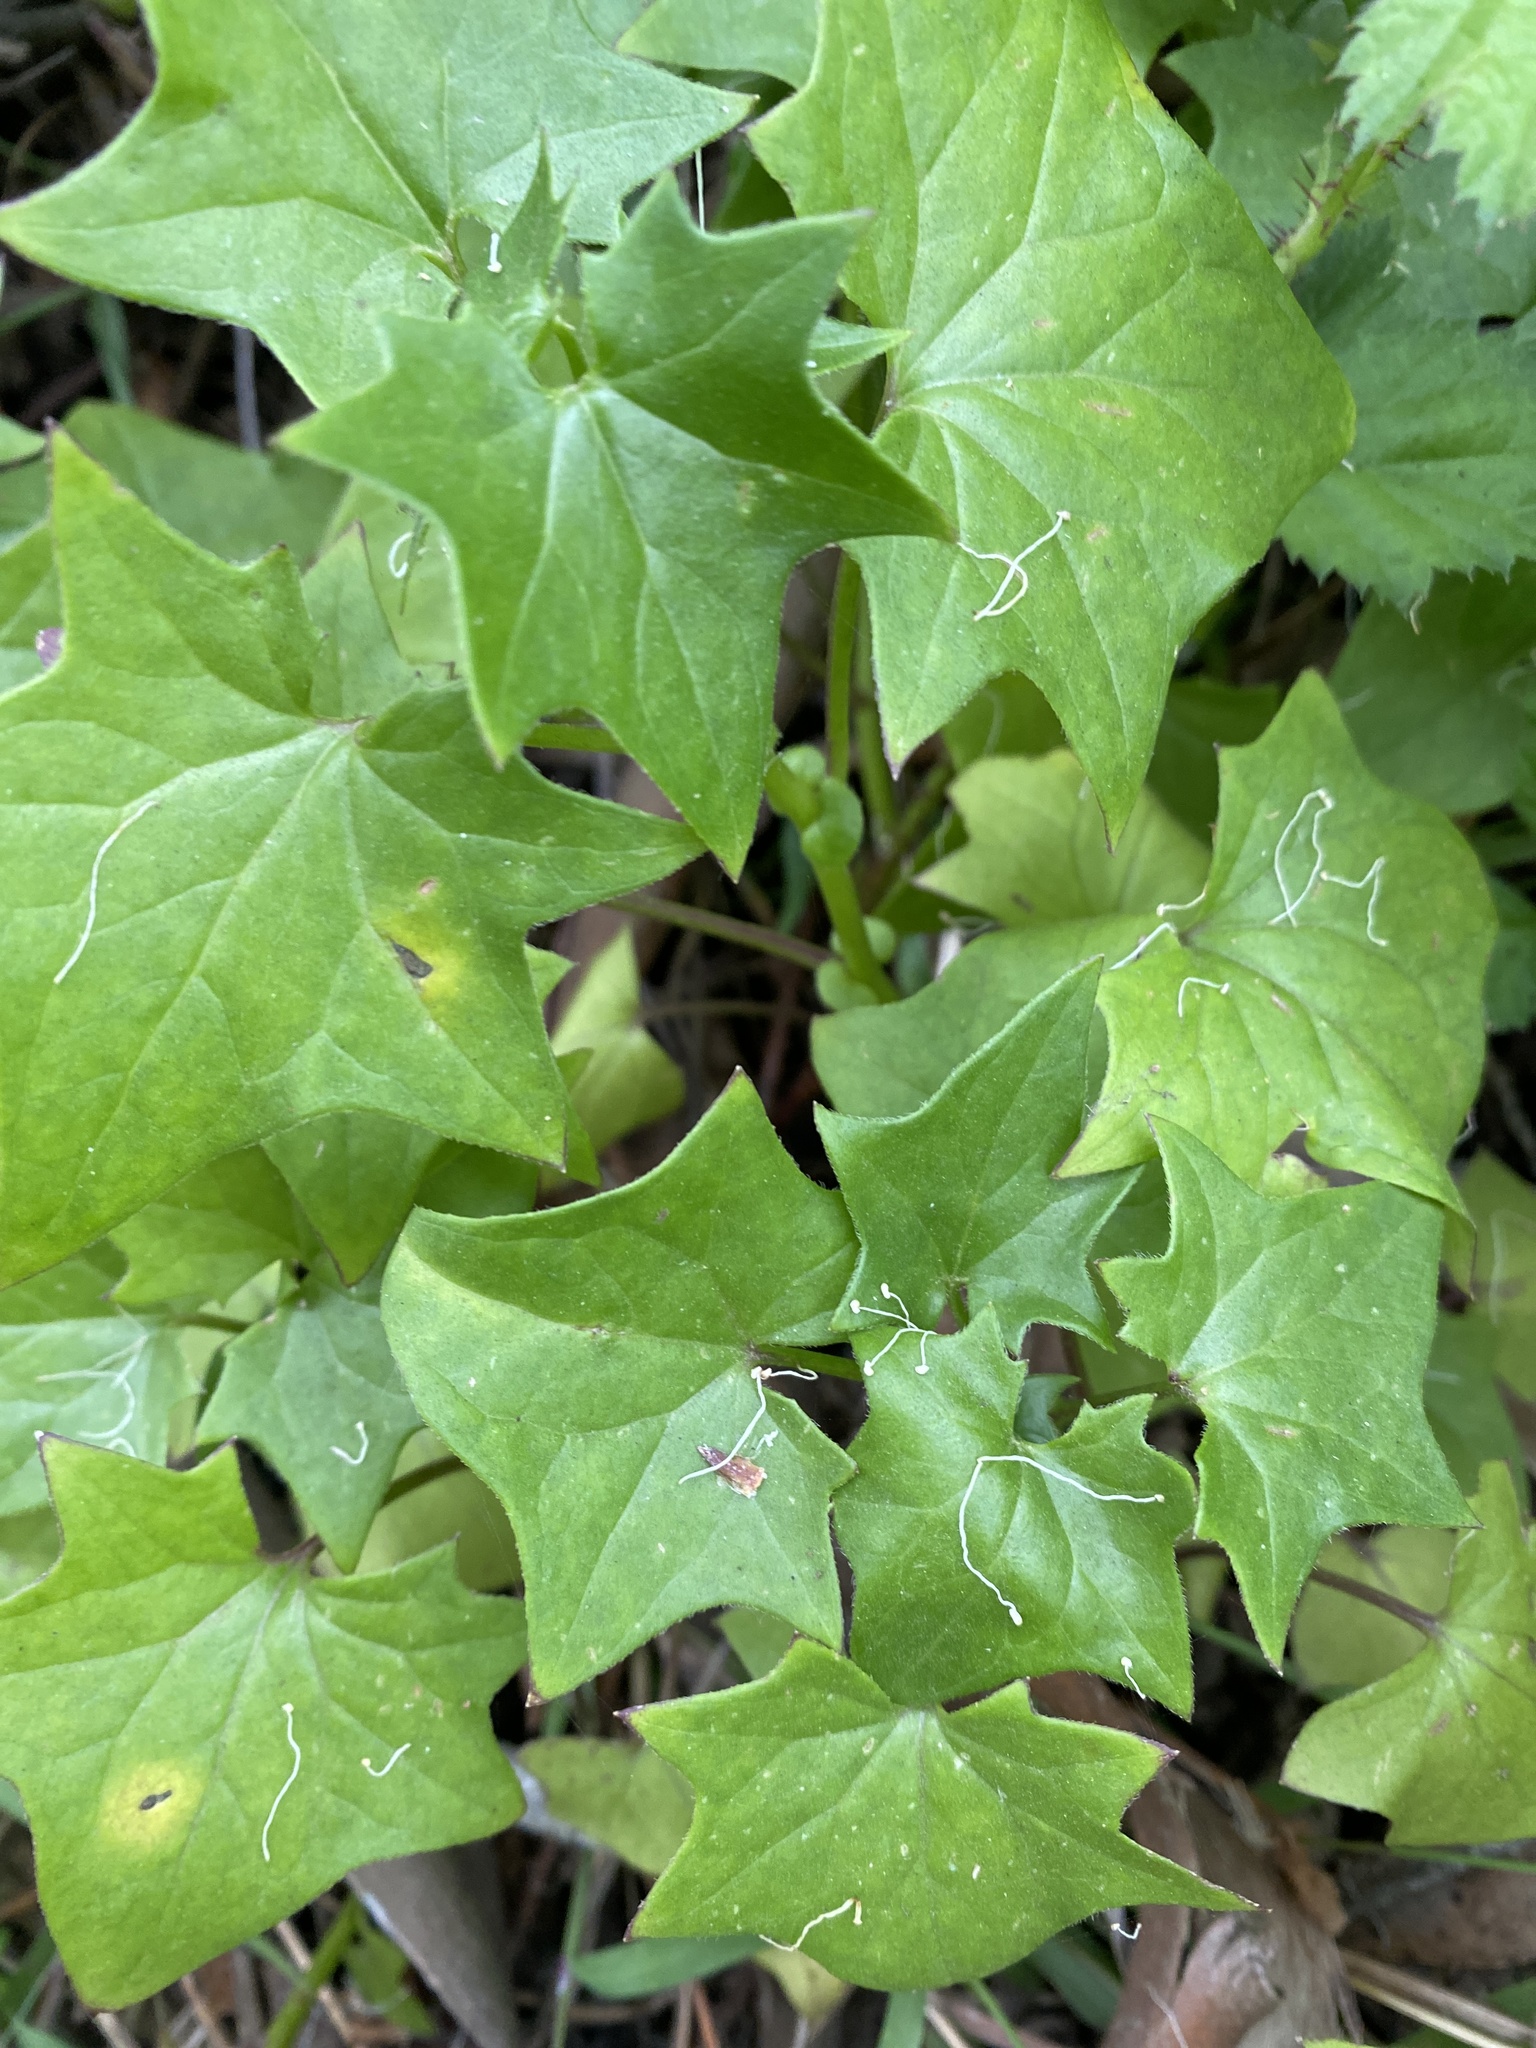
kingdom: Plantae
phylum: Tracheophyta
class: Magnoliopsida
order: Asterales
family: Asteraceae
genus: Delairea
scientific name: Delairea odorata
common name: Cape-ivy
